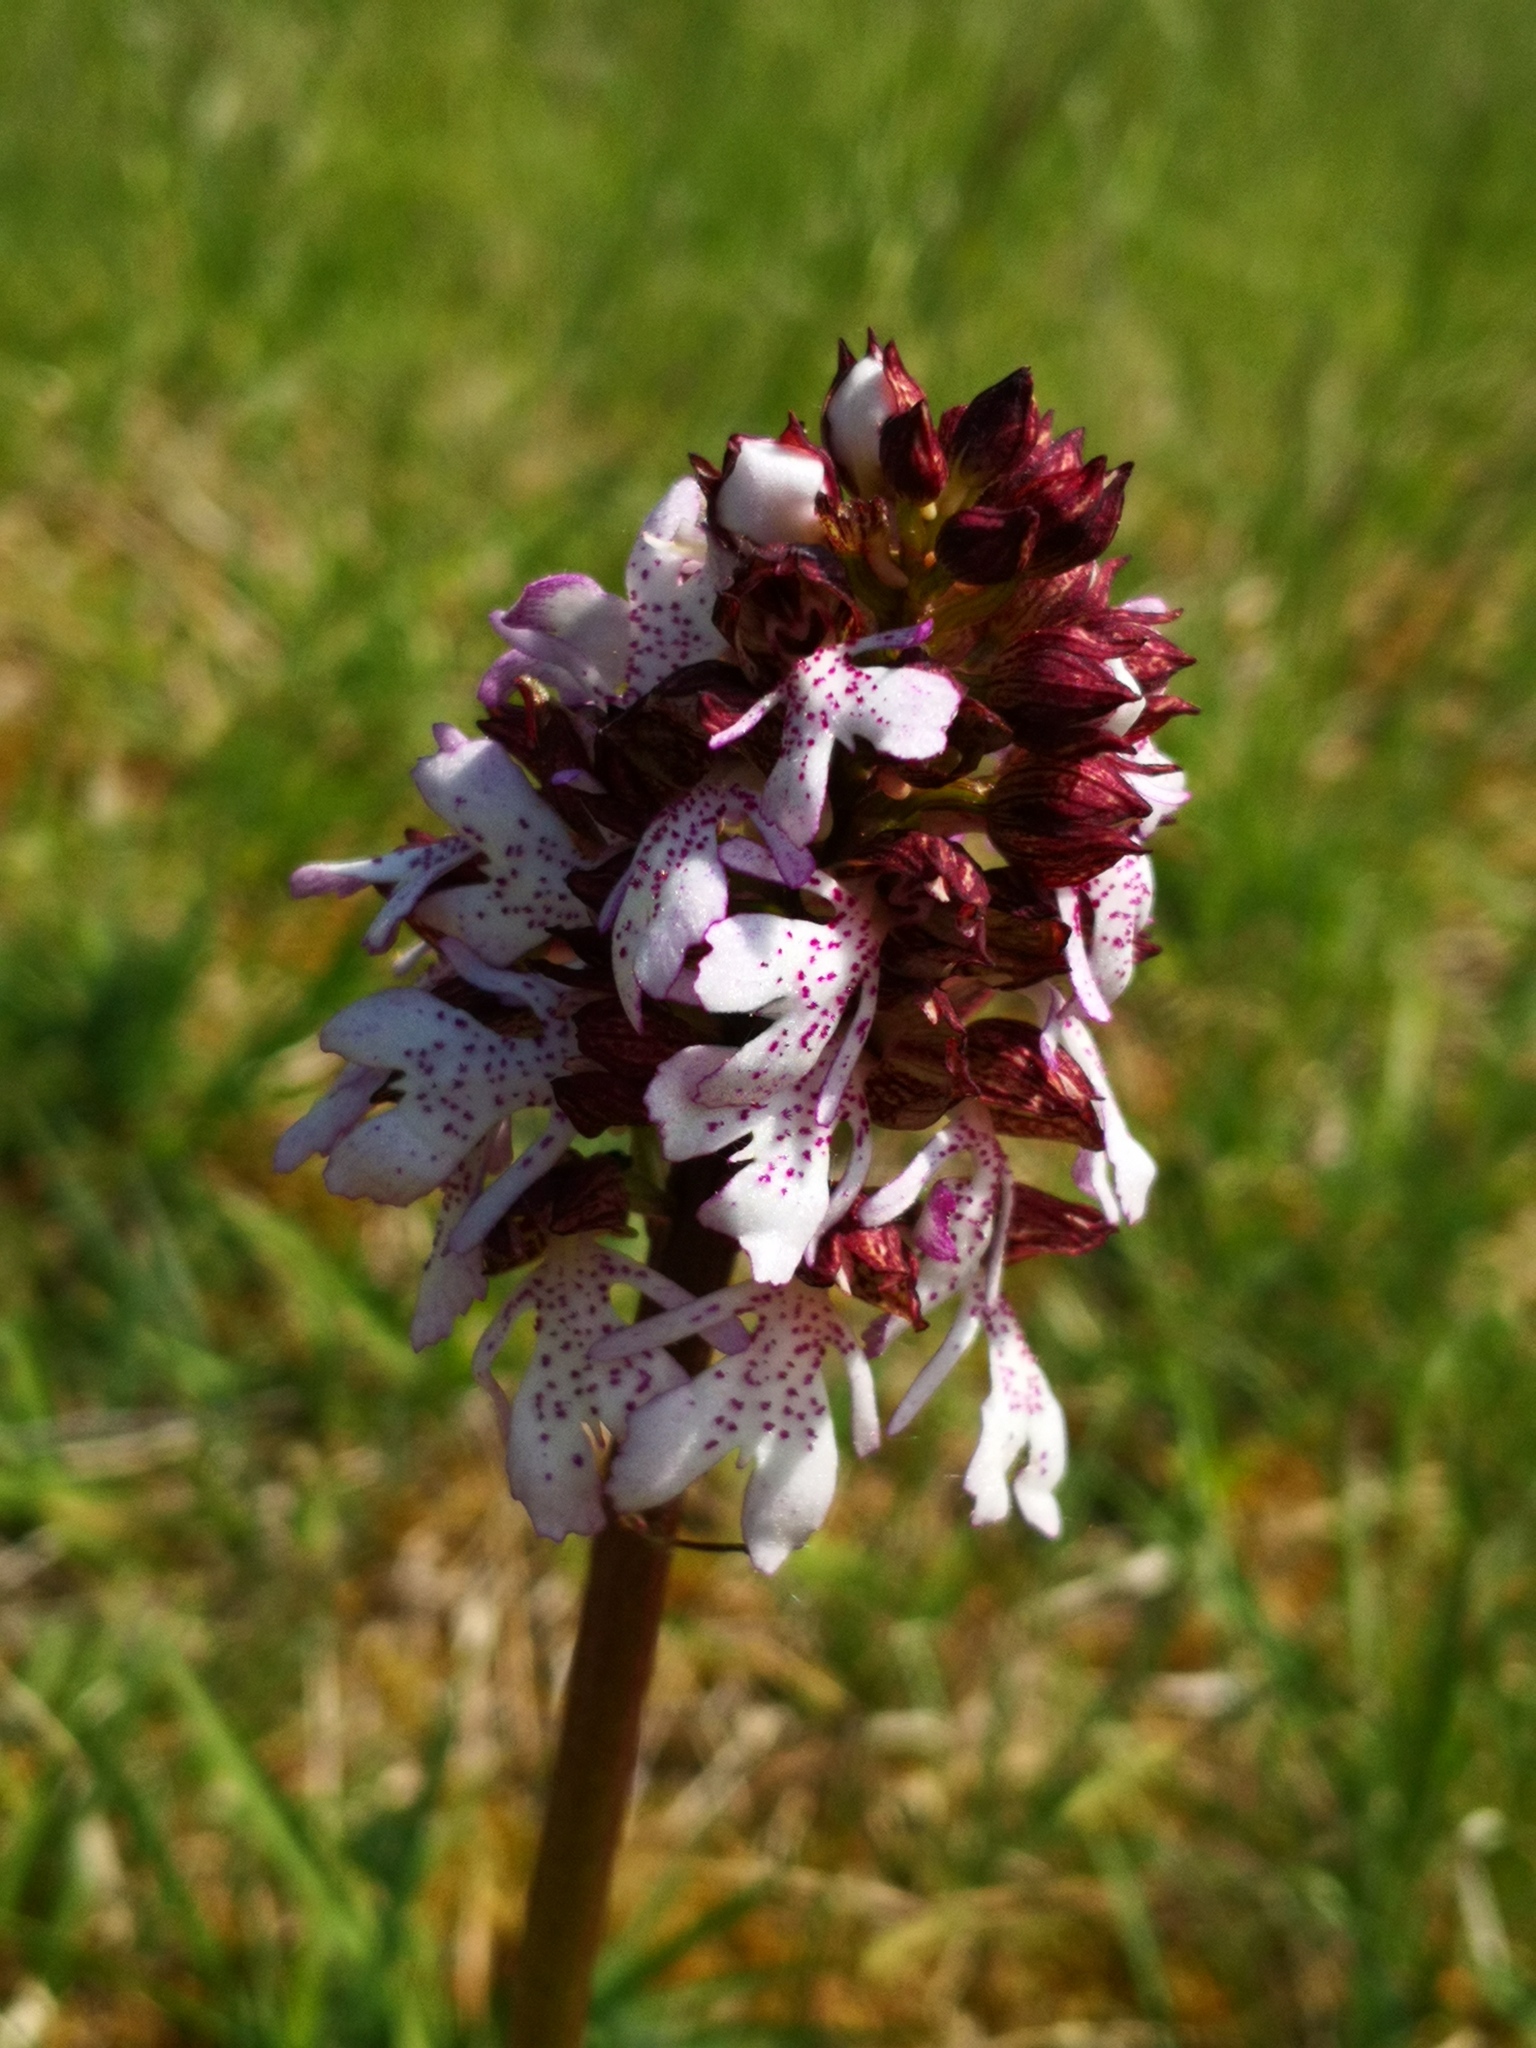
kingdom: Plantae
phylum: Tracheophyta
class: Liliopsida
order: Asparagales
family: Orchidaceae
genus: Orchis
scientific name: Orchis purpurea
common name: Lady orchid
